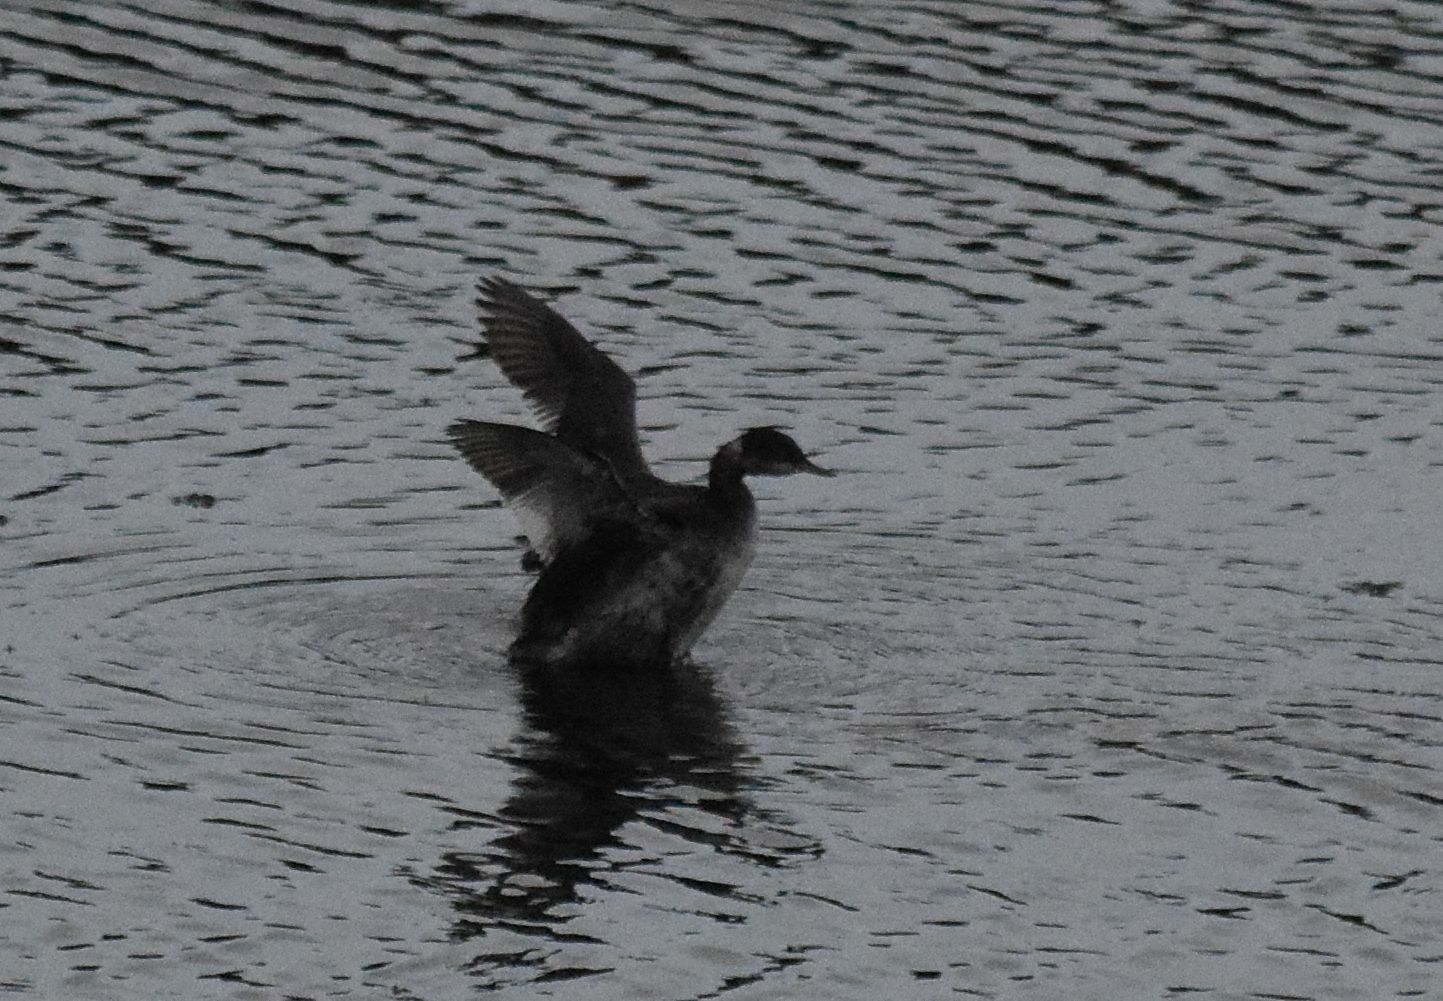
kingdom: Animalia
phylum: Chordata
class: Aves
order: Podicipediformes
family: Podicipedidae
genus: Podiceps
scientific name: Podiceps nigricollis
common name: Black-necked grebe
